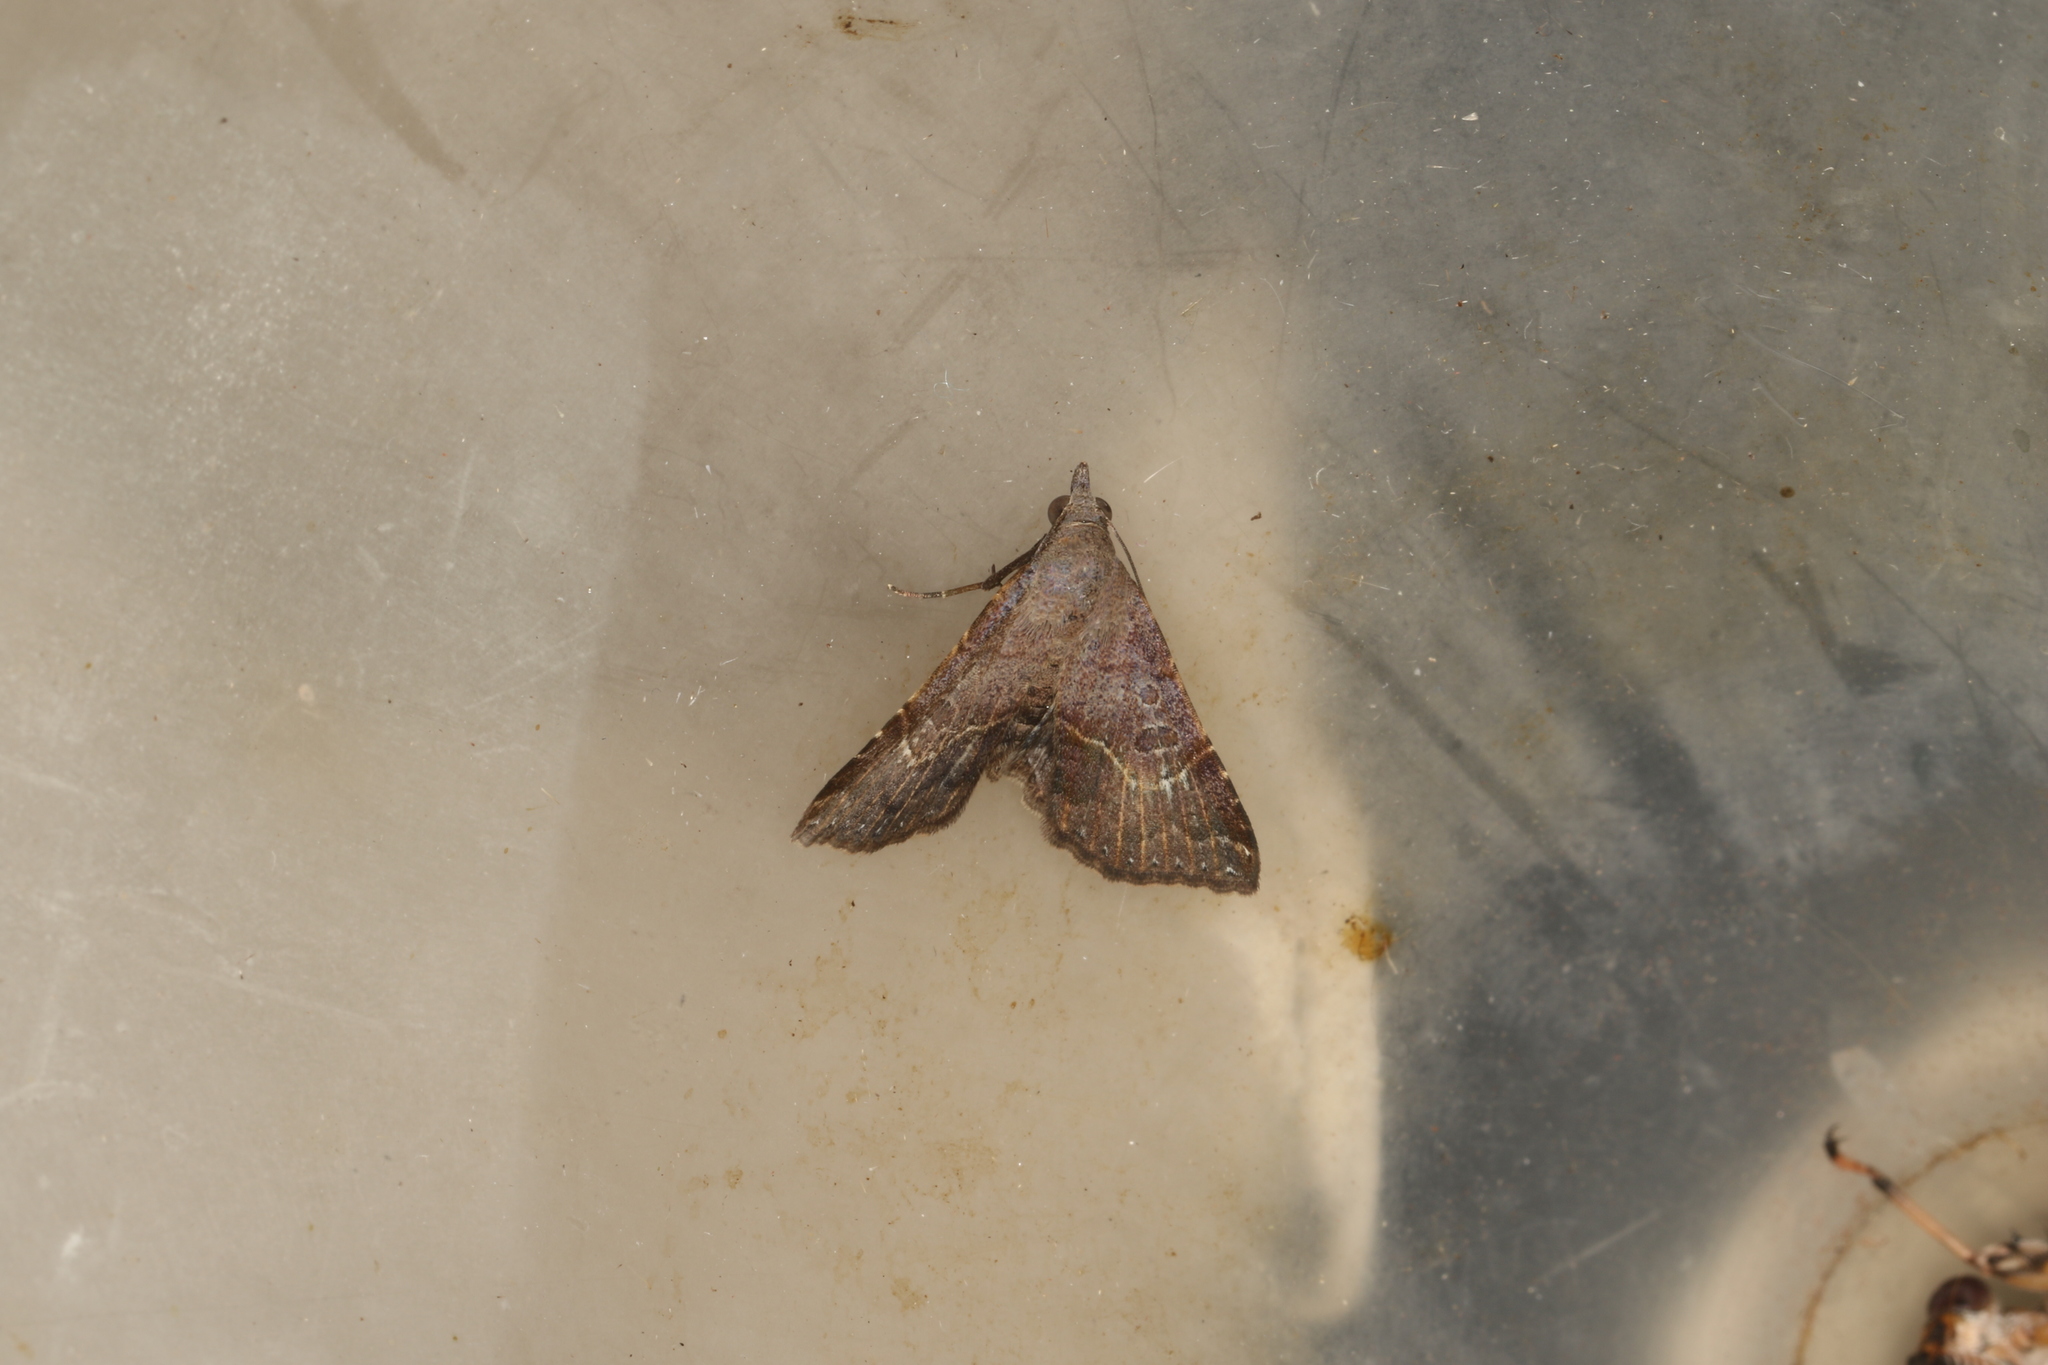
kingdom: Animalia
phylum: Arthropoda
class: Insecta
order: Lepidoptera
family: Erebidae
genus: Rhesalides
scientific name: Rhesalides curvata
